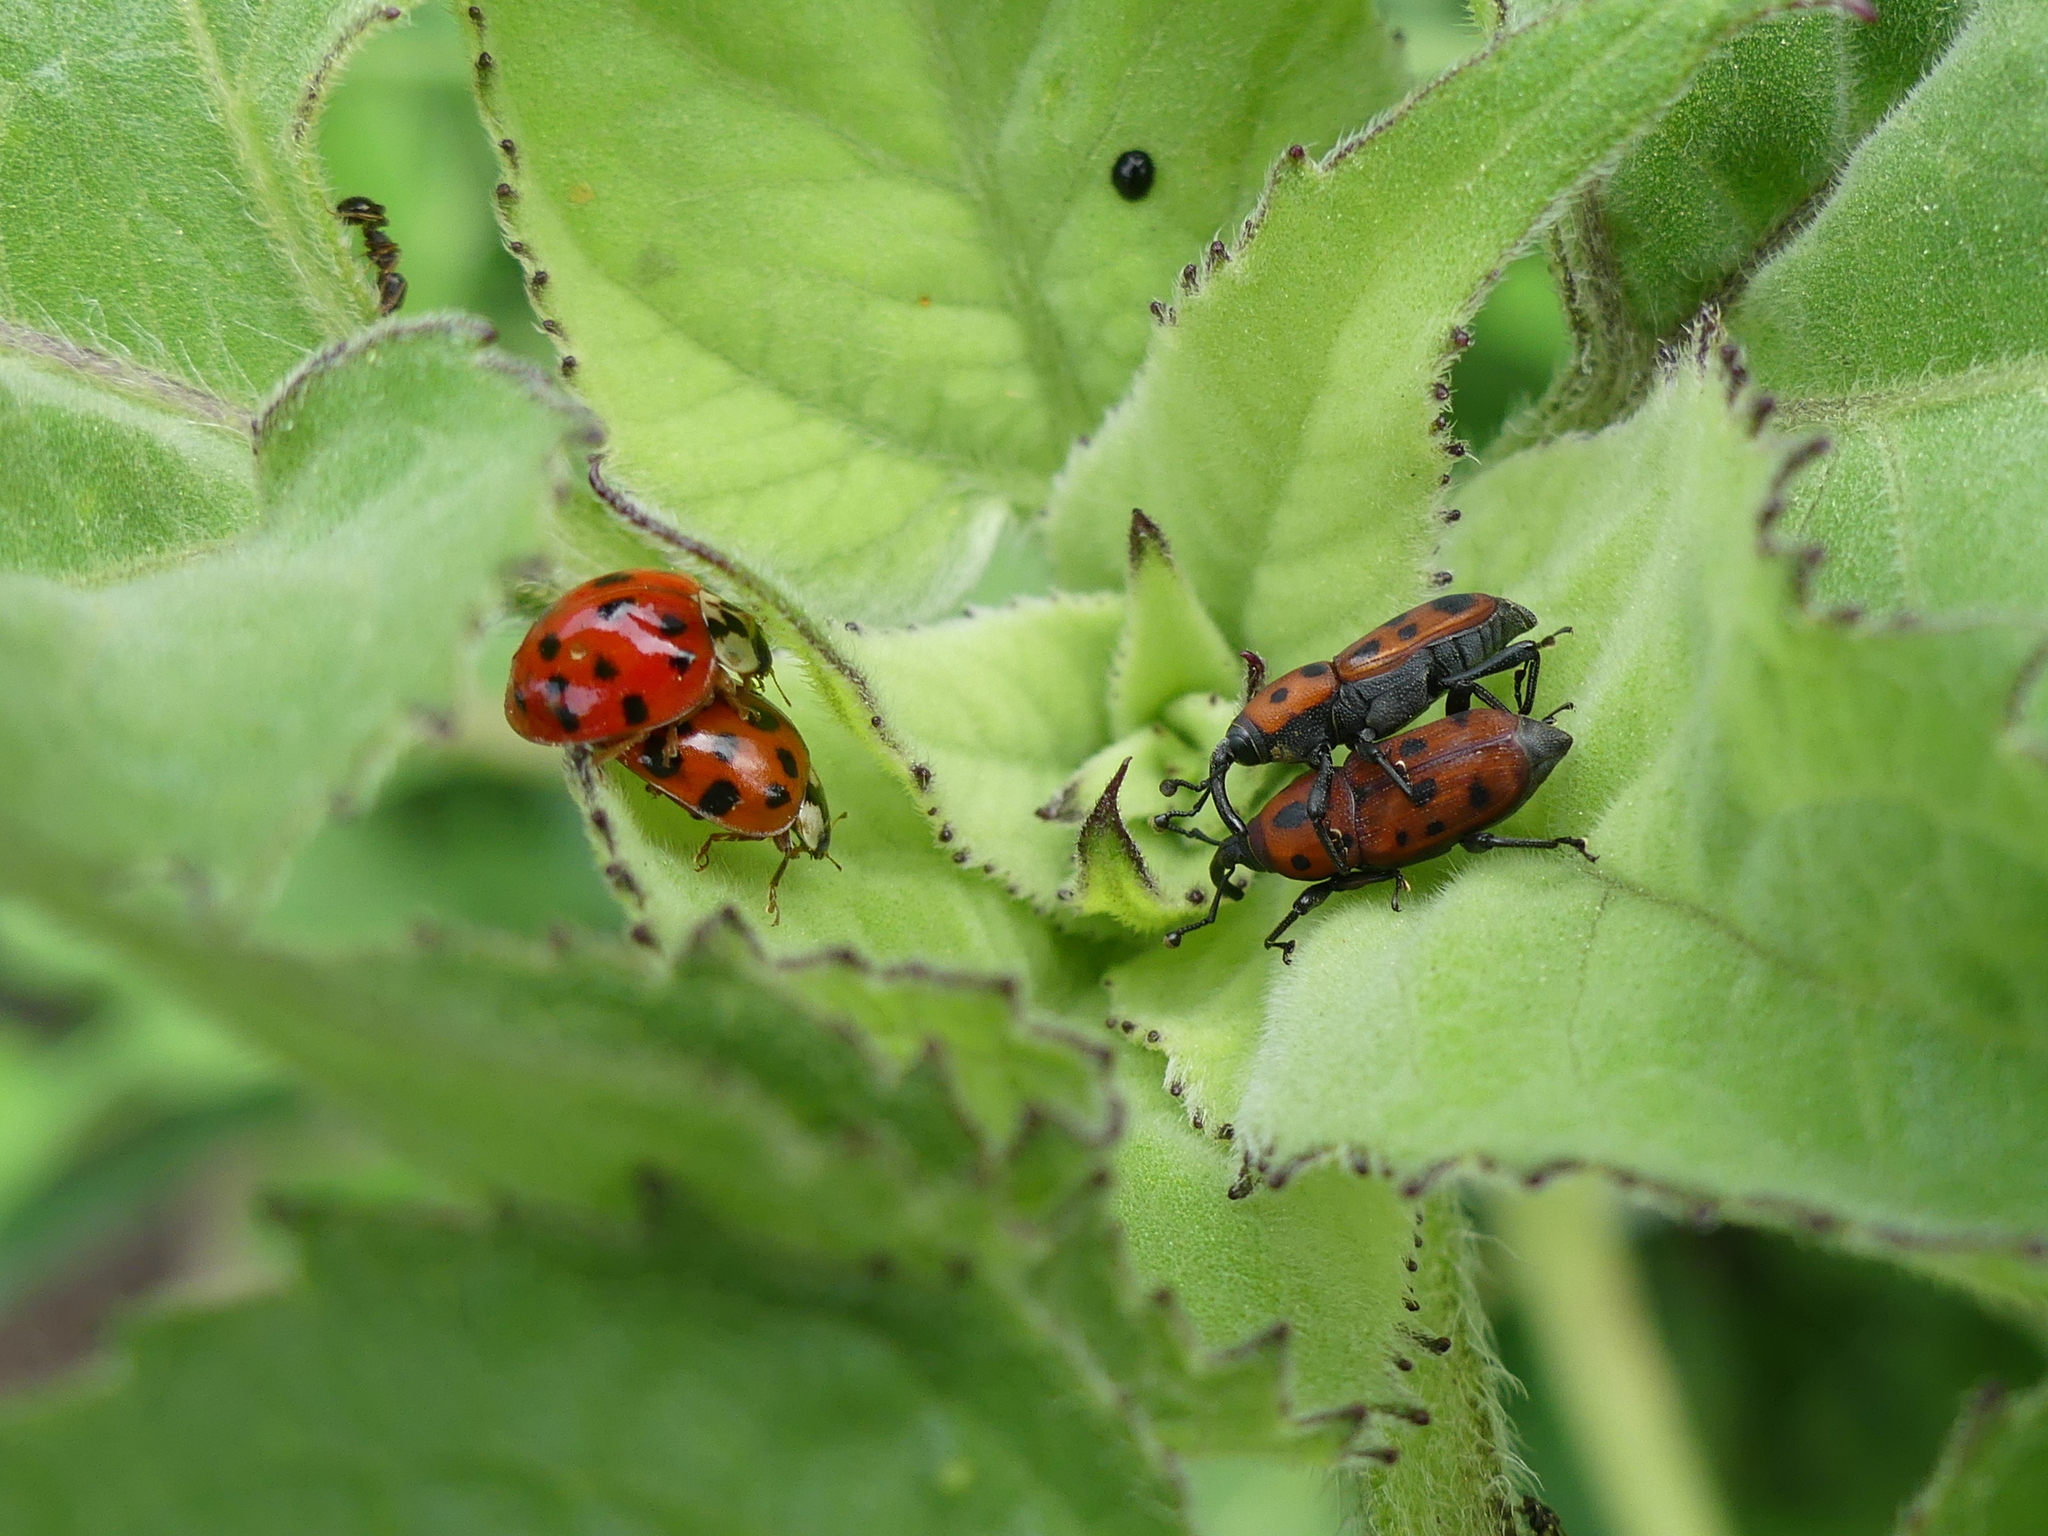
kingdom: Animalia
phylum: Arthropoda
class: Insecta
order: Coleoptera
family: Dryophthoridae
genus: Rhodobaenus
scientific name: Rhodobaenus tredecimpunctatus
